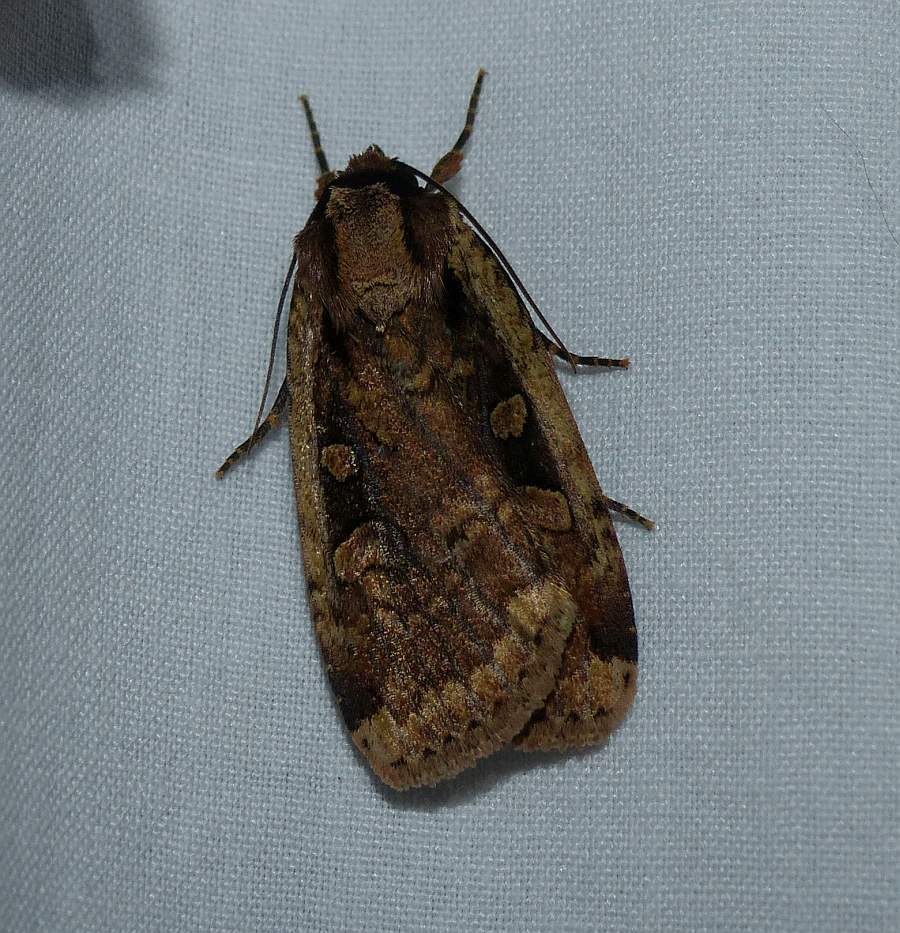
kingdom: Animalia
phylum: Arthropoda
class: Insecta
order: Lepidoptera
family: Noctuidae
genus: Eueretagrotis
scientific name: Eueretagrotis sigmoides
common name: Sigmoid dart
